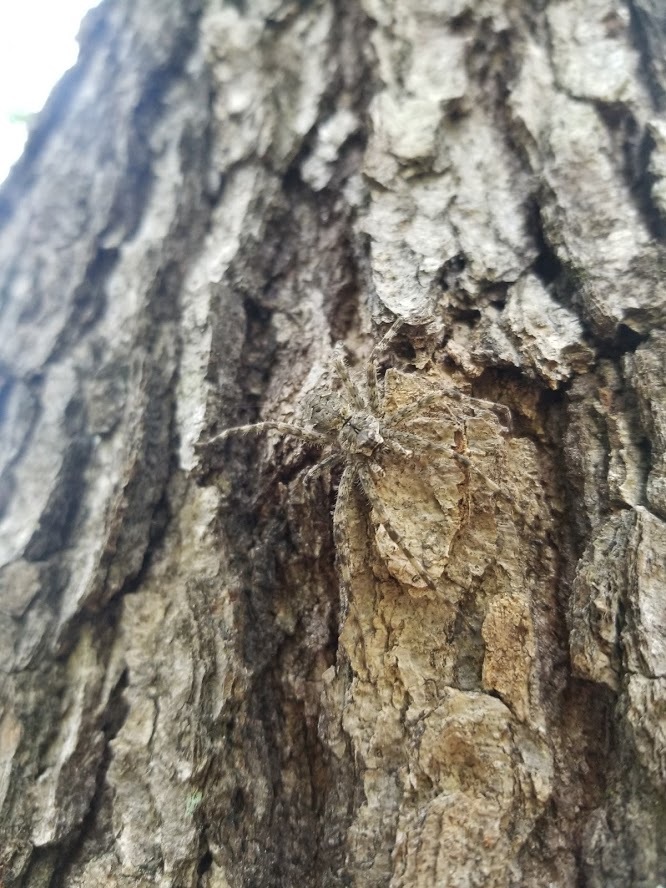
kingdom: Animalia
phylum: Arthropoda
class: Arachnida
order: Araneae
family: Pisauridae
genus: Dolomedes
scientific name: Dolomedes albineus
